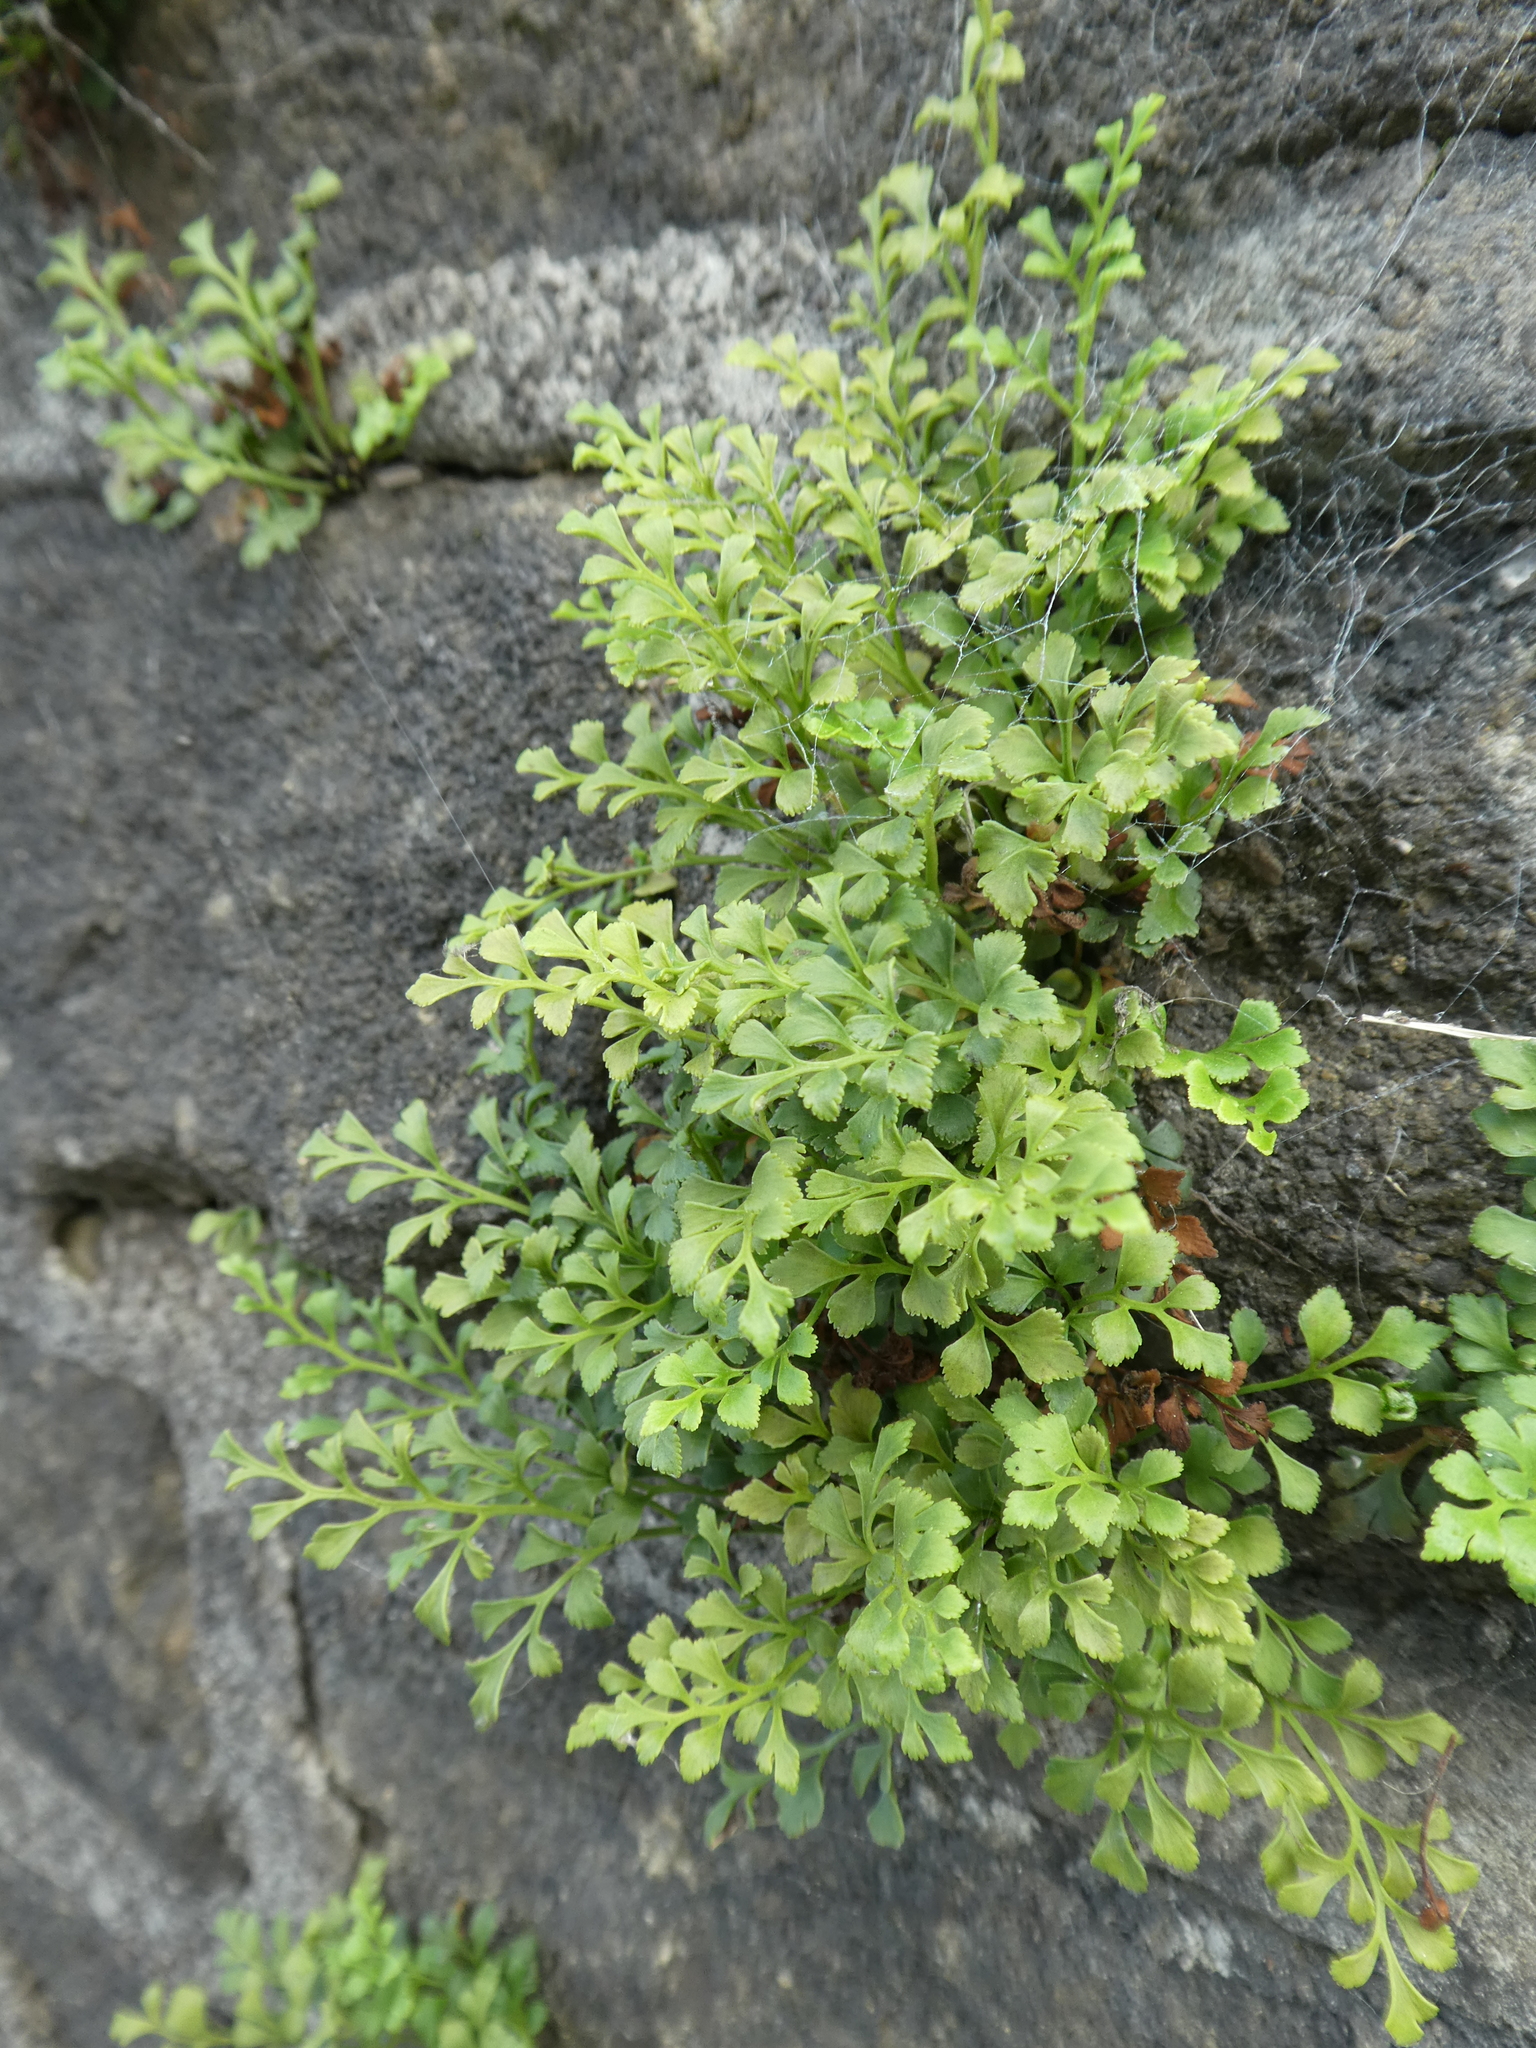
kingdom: Plantae
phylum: Tracheophyta
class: Polypodiopsida
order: Polypodiales
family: Aspleniaceae
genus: Asplenium
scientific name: Asplenium ruta-muraria
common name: Wall-rue
